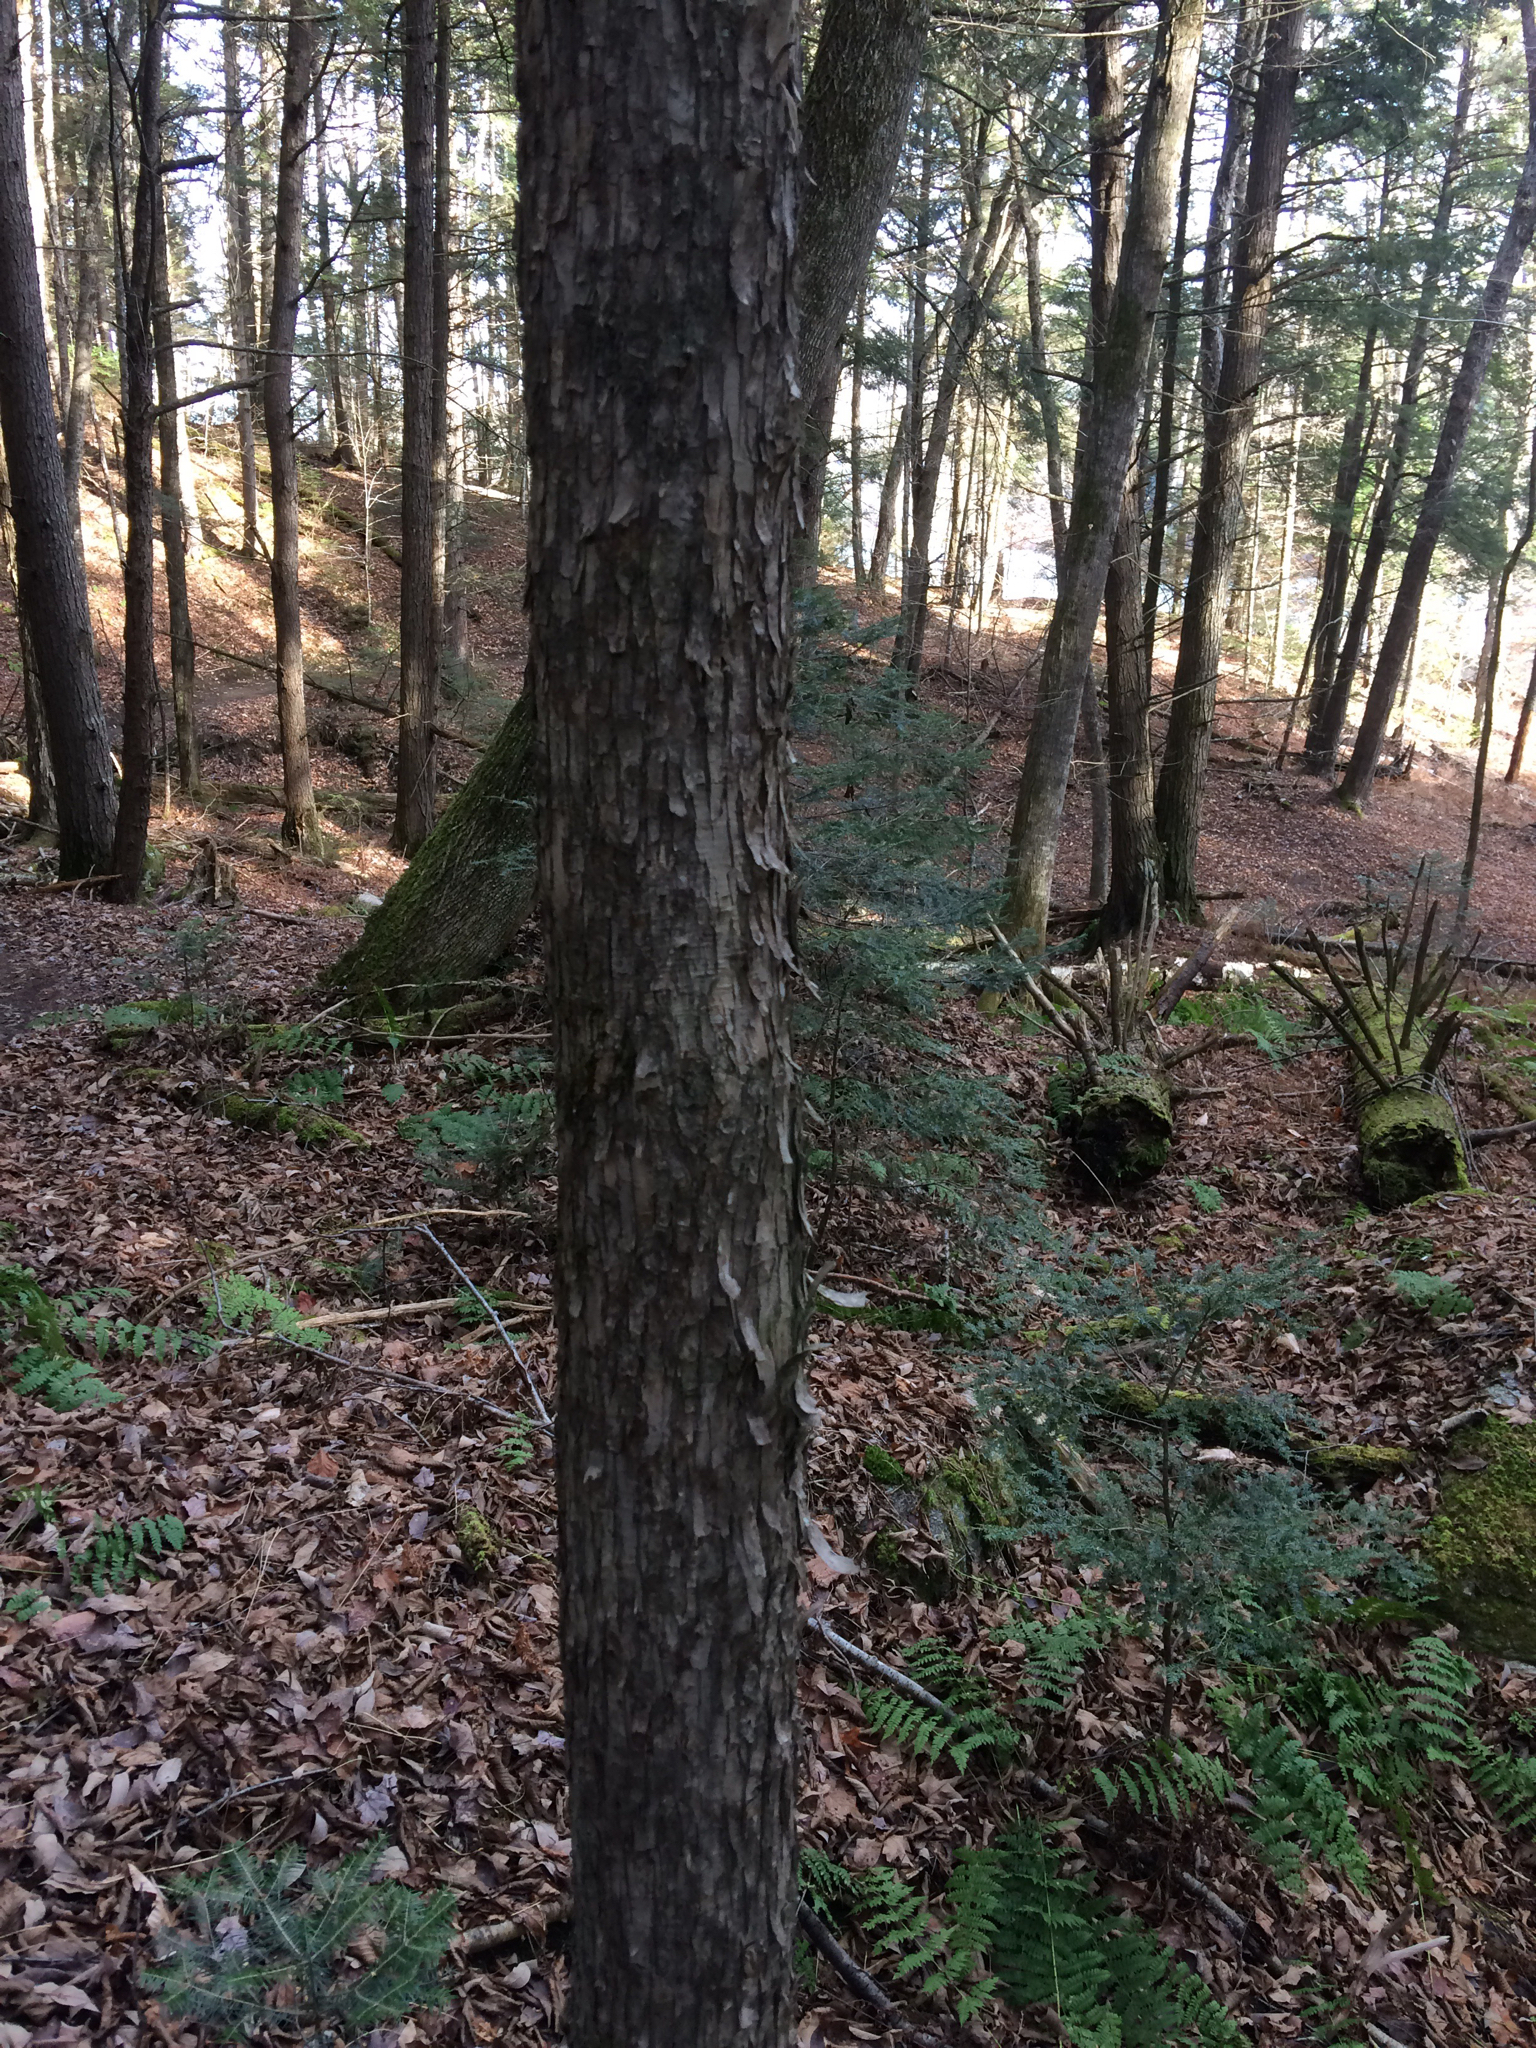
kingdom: Plantae
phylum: Tracheophyta
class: Magnoliopsida
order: Fagales
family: Betulaceae
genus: Ostrya
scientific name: Ostrya virginiana
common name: Ironwood
